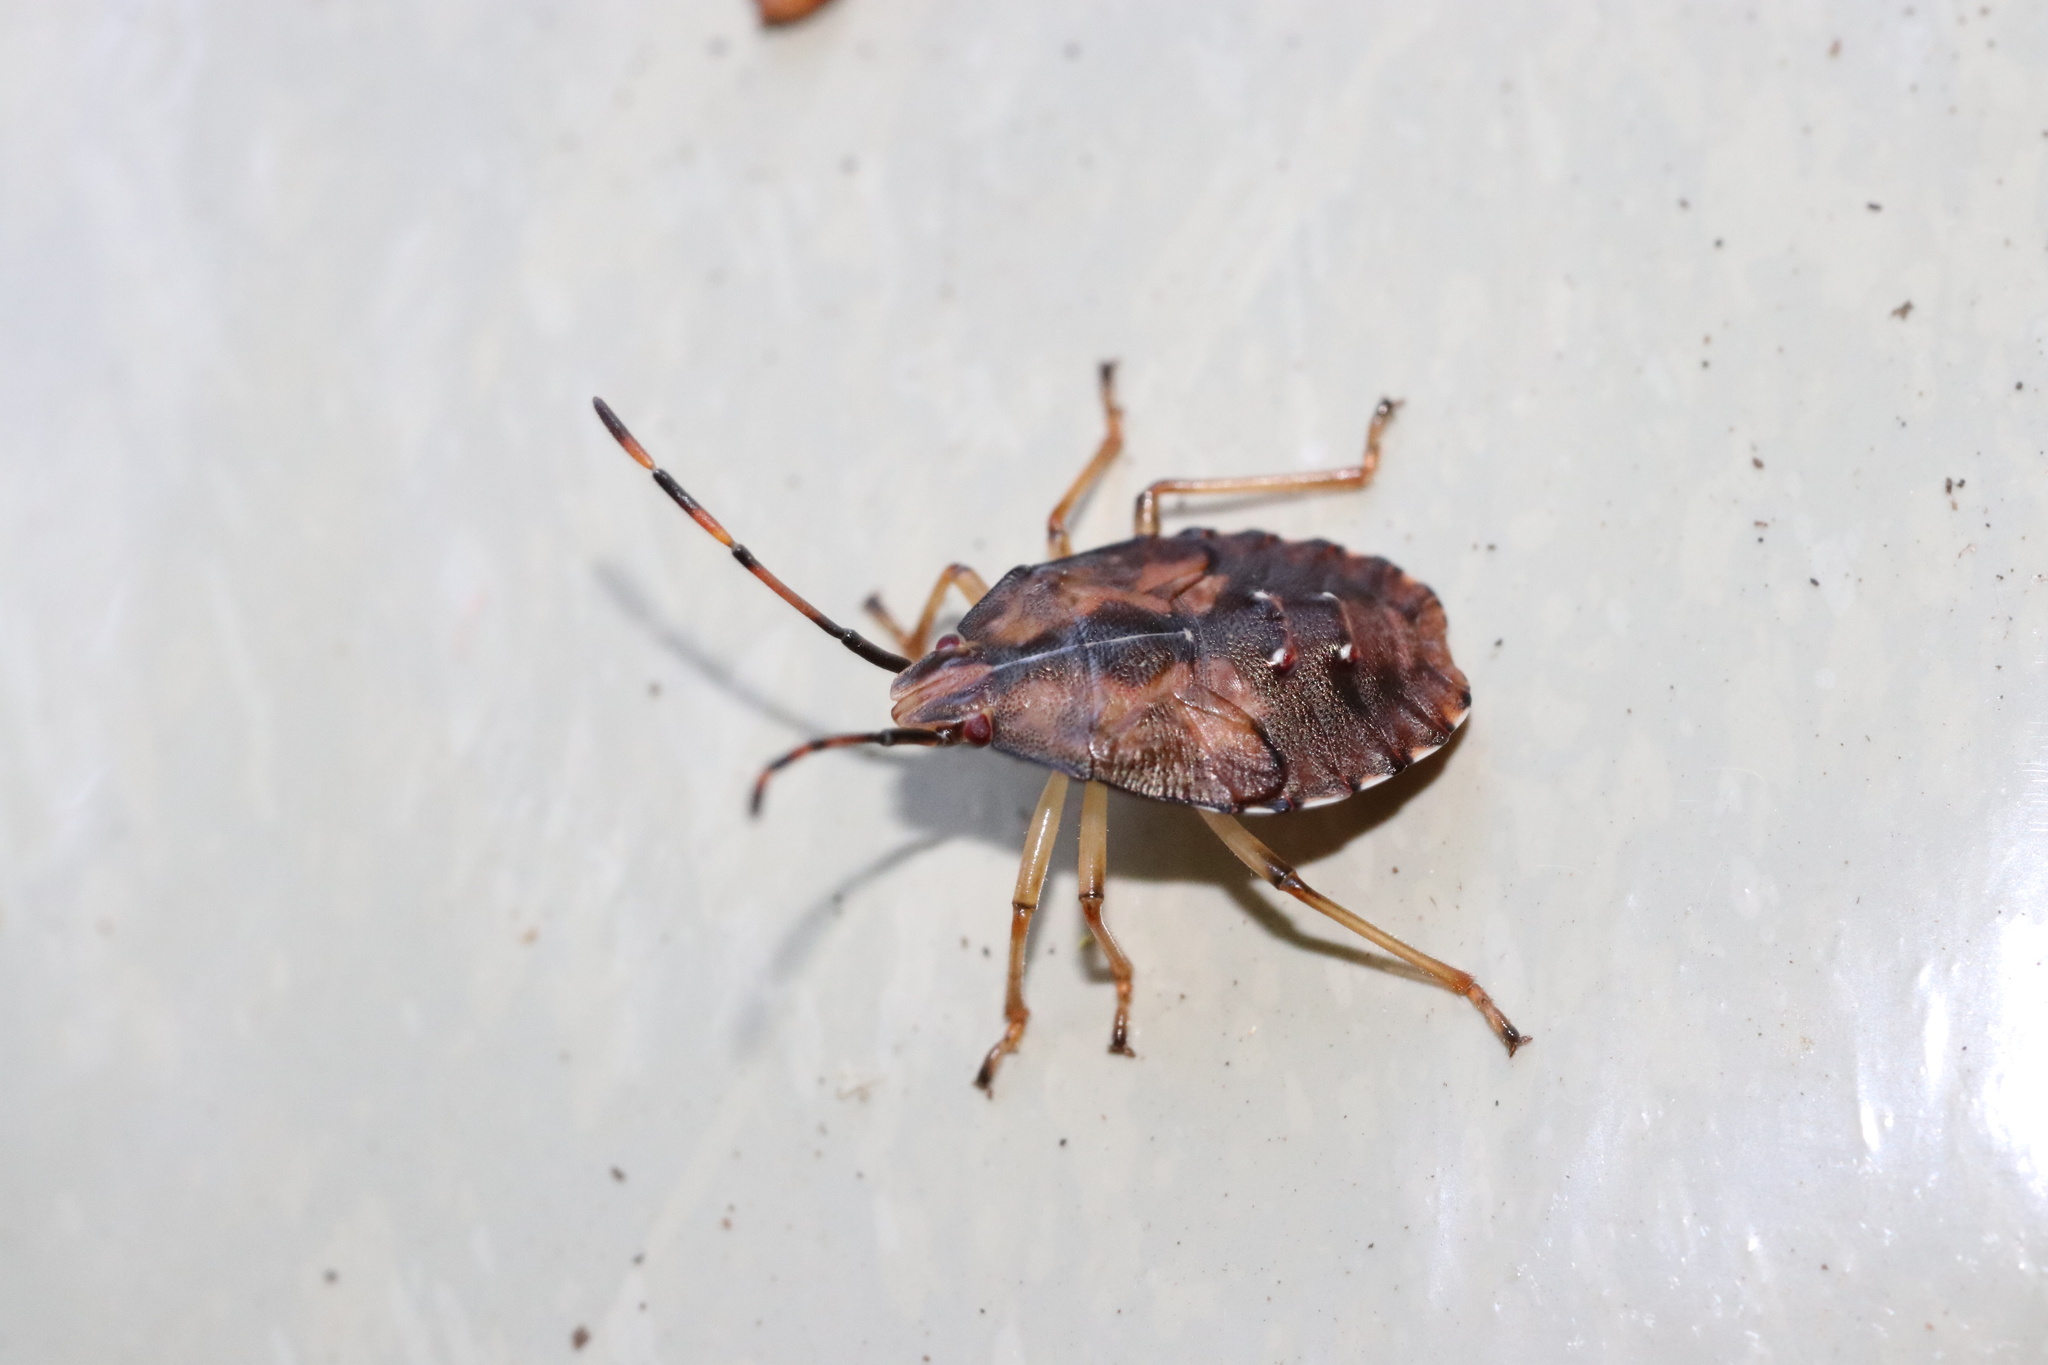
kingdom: Animalia
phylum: Arthropoda
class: Insecta
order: Hemiptera
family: Acanthosomatidae
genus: Planois
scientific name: Planois gayi
